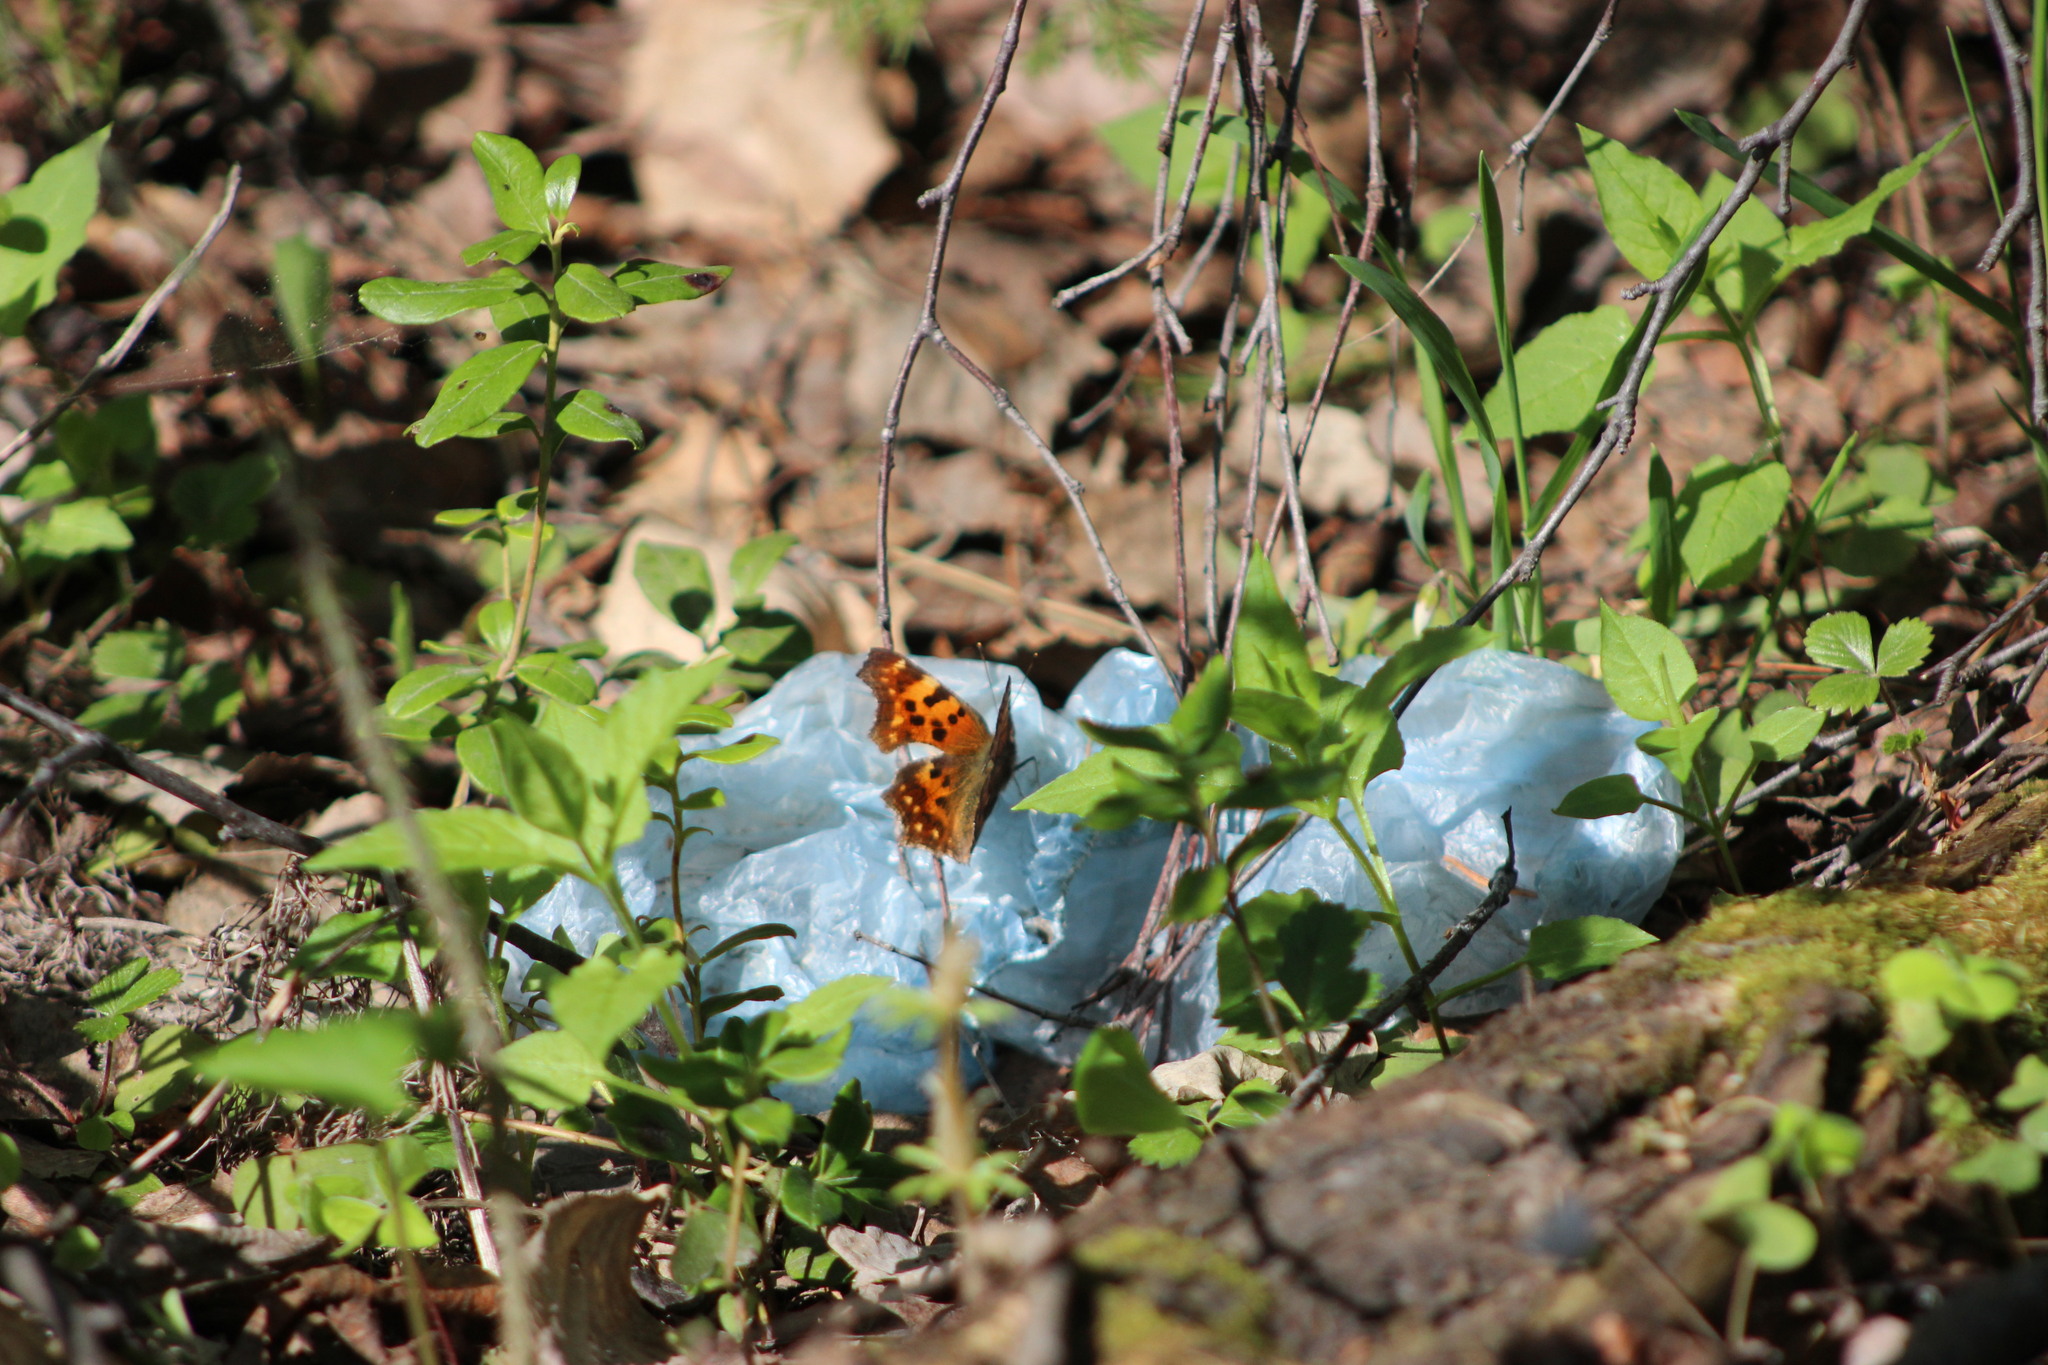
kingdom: Animalia
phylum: Arthropoda
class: Insecta
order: Lepidoptera
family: Nymphalidae
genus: Polygonia
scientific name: Polygonia c-album
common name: Comma
